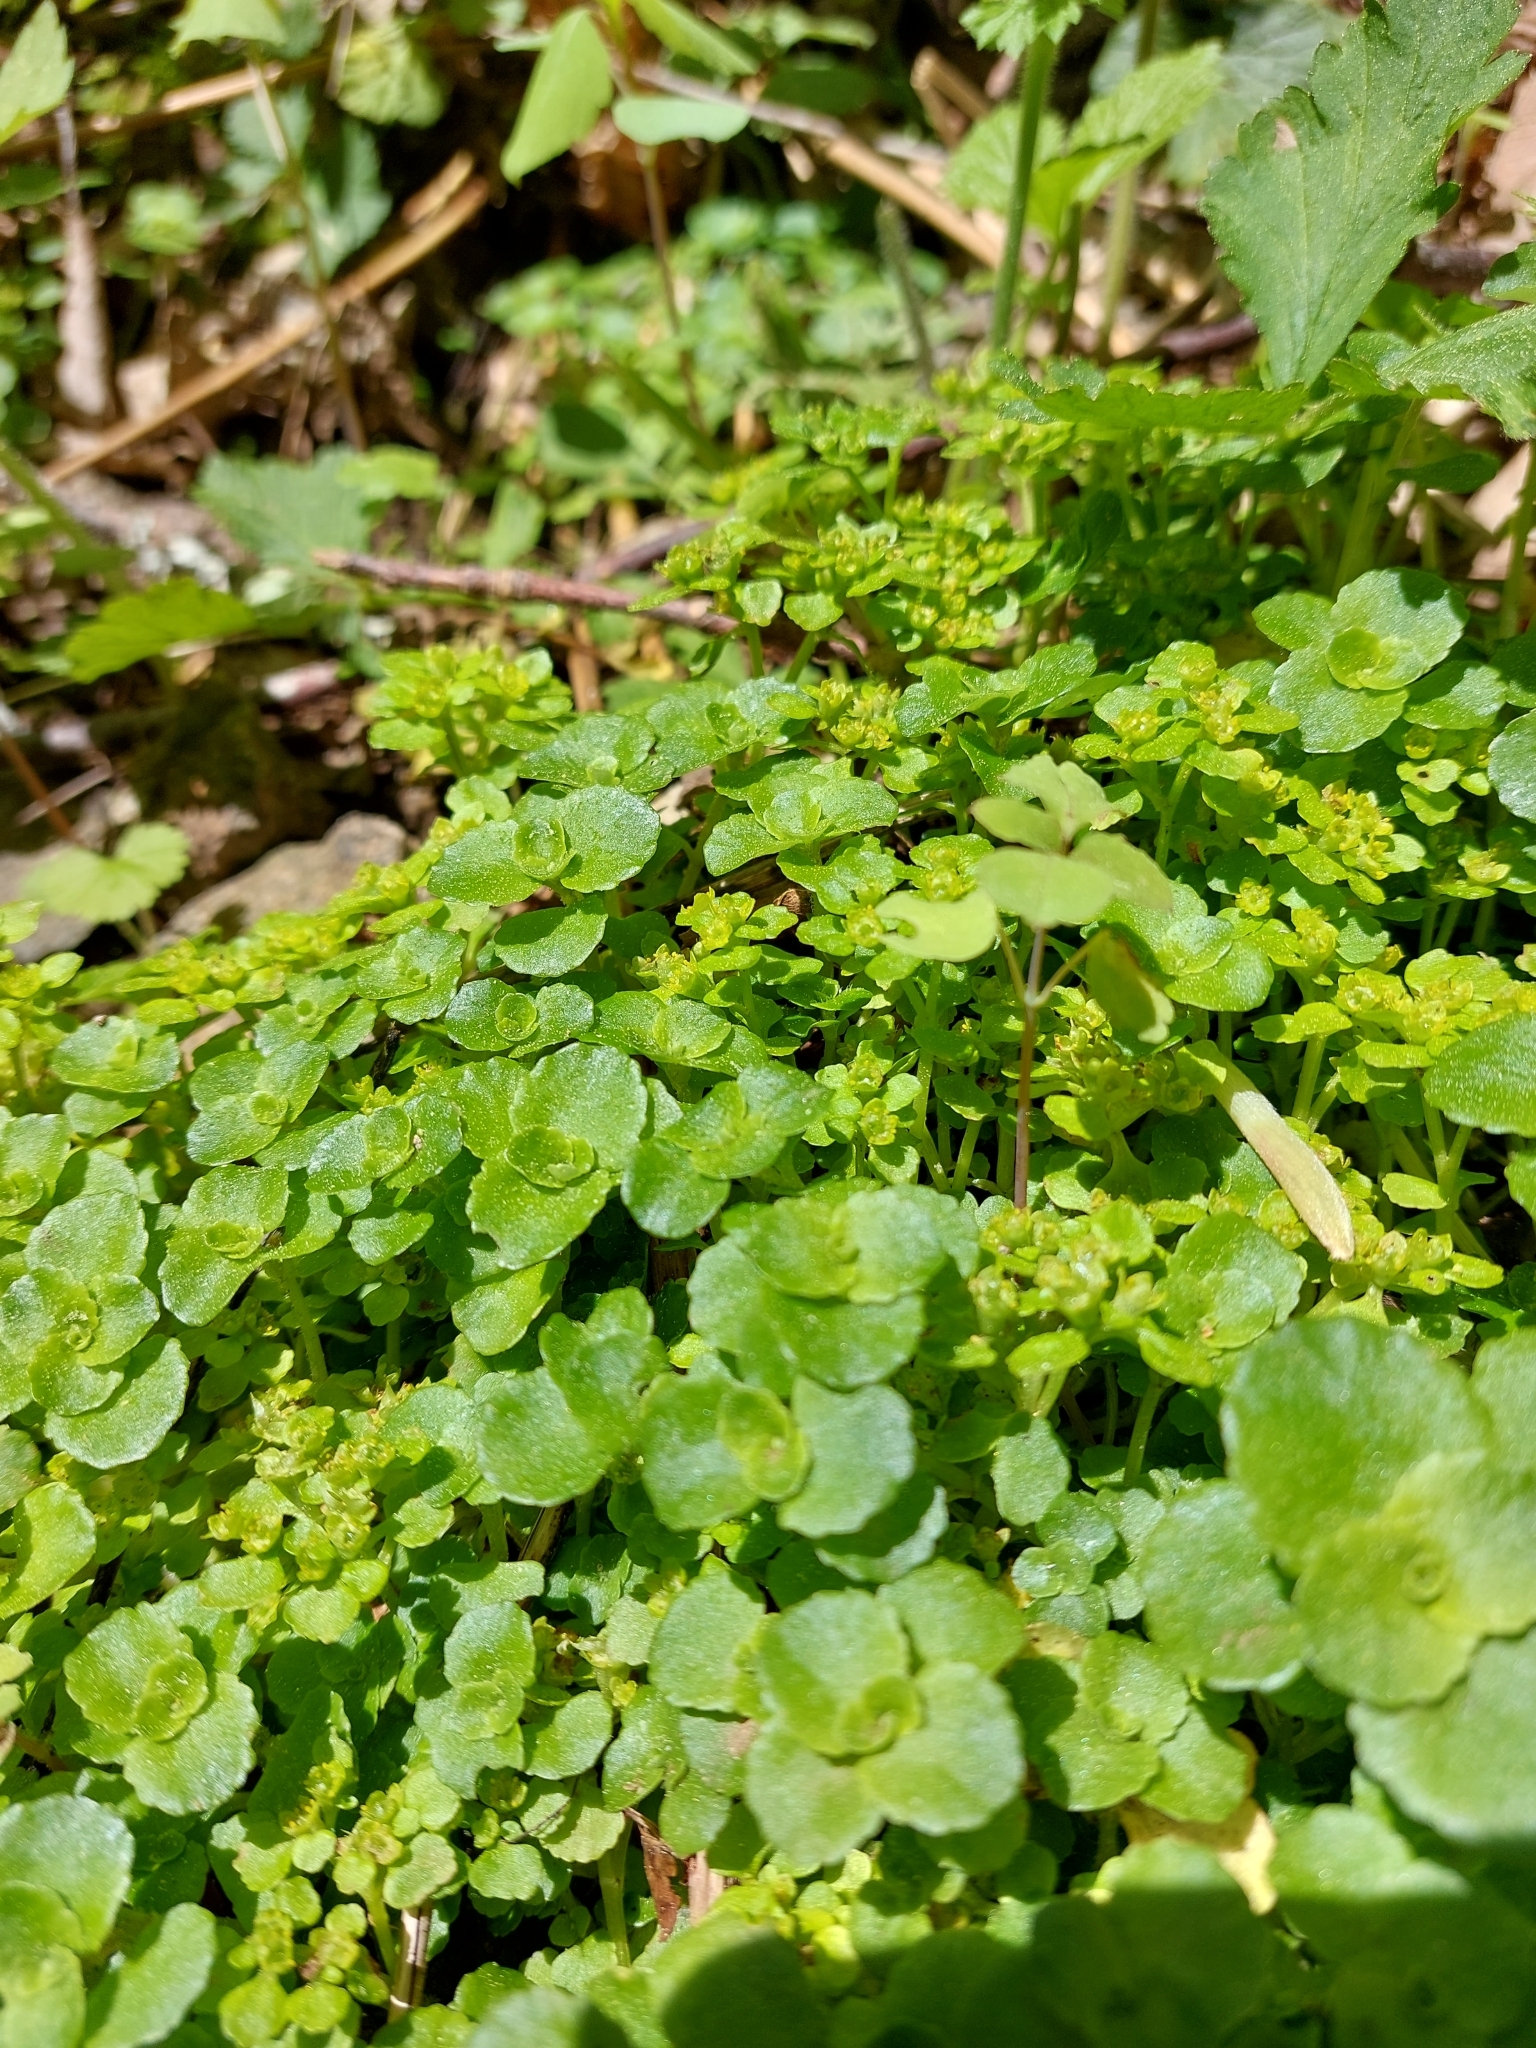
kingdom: Plantae
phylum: Tracheophyta
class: Magnoliopsida
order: Saxifragales
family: Saxifragaceae
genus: Chrysosplenium
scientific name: Chrysosplenium oppositifolium
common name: Opposite-leaved golden-saxifrage
